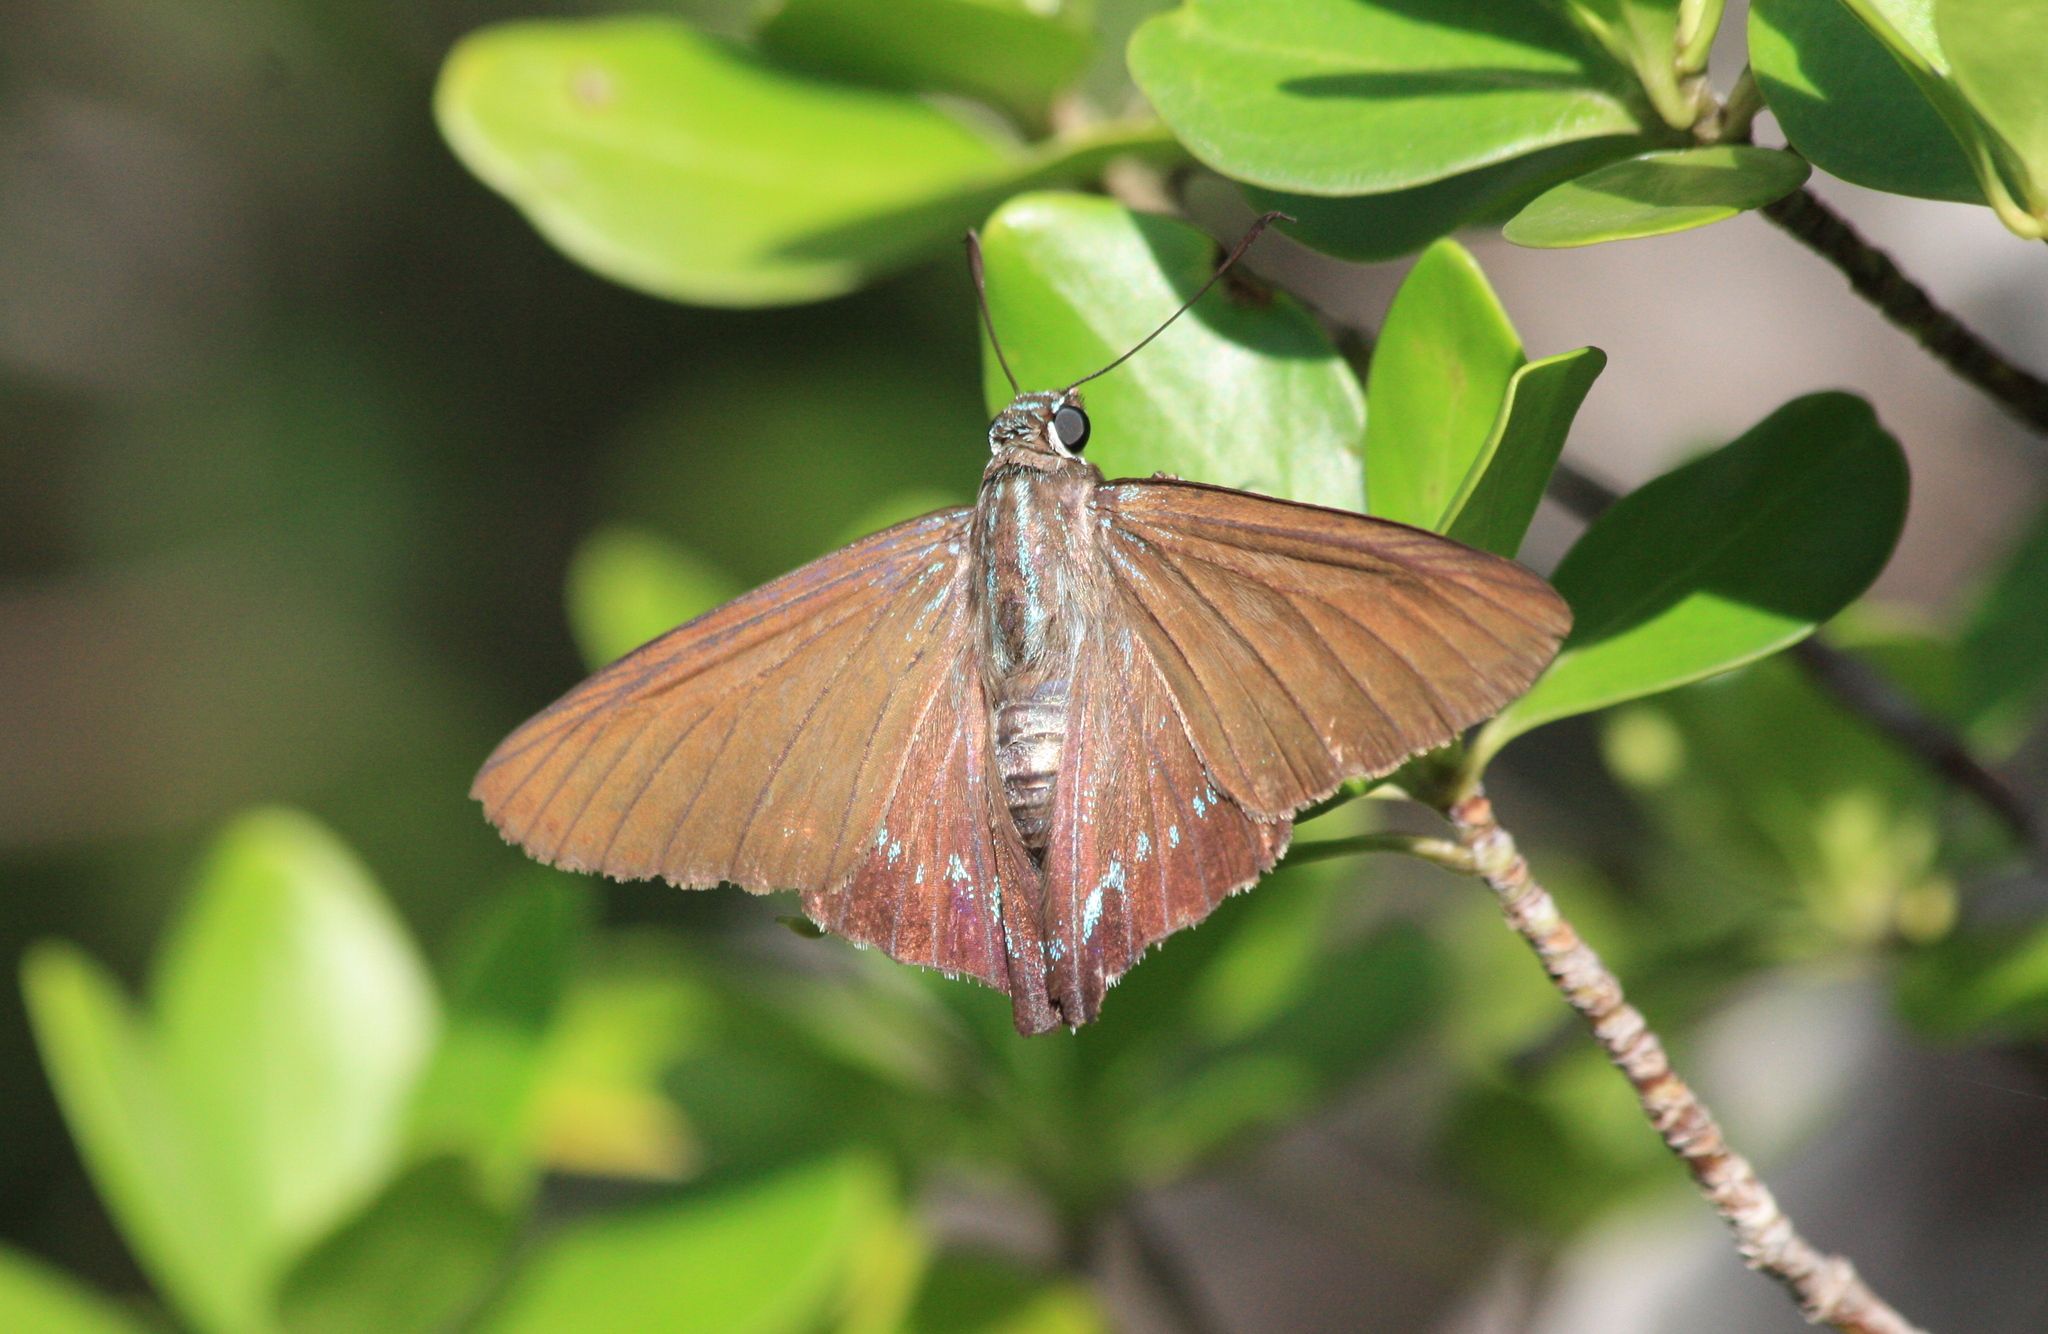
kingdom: Animalia
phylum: Arthropoda
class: Insecta
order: Lepidoptera
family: Hesperiidae
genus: Phocides
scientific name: Phocides pigmalion
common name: Mangrove skipper
